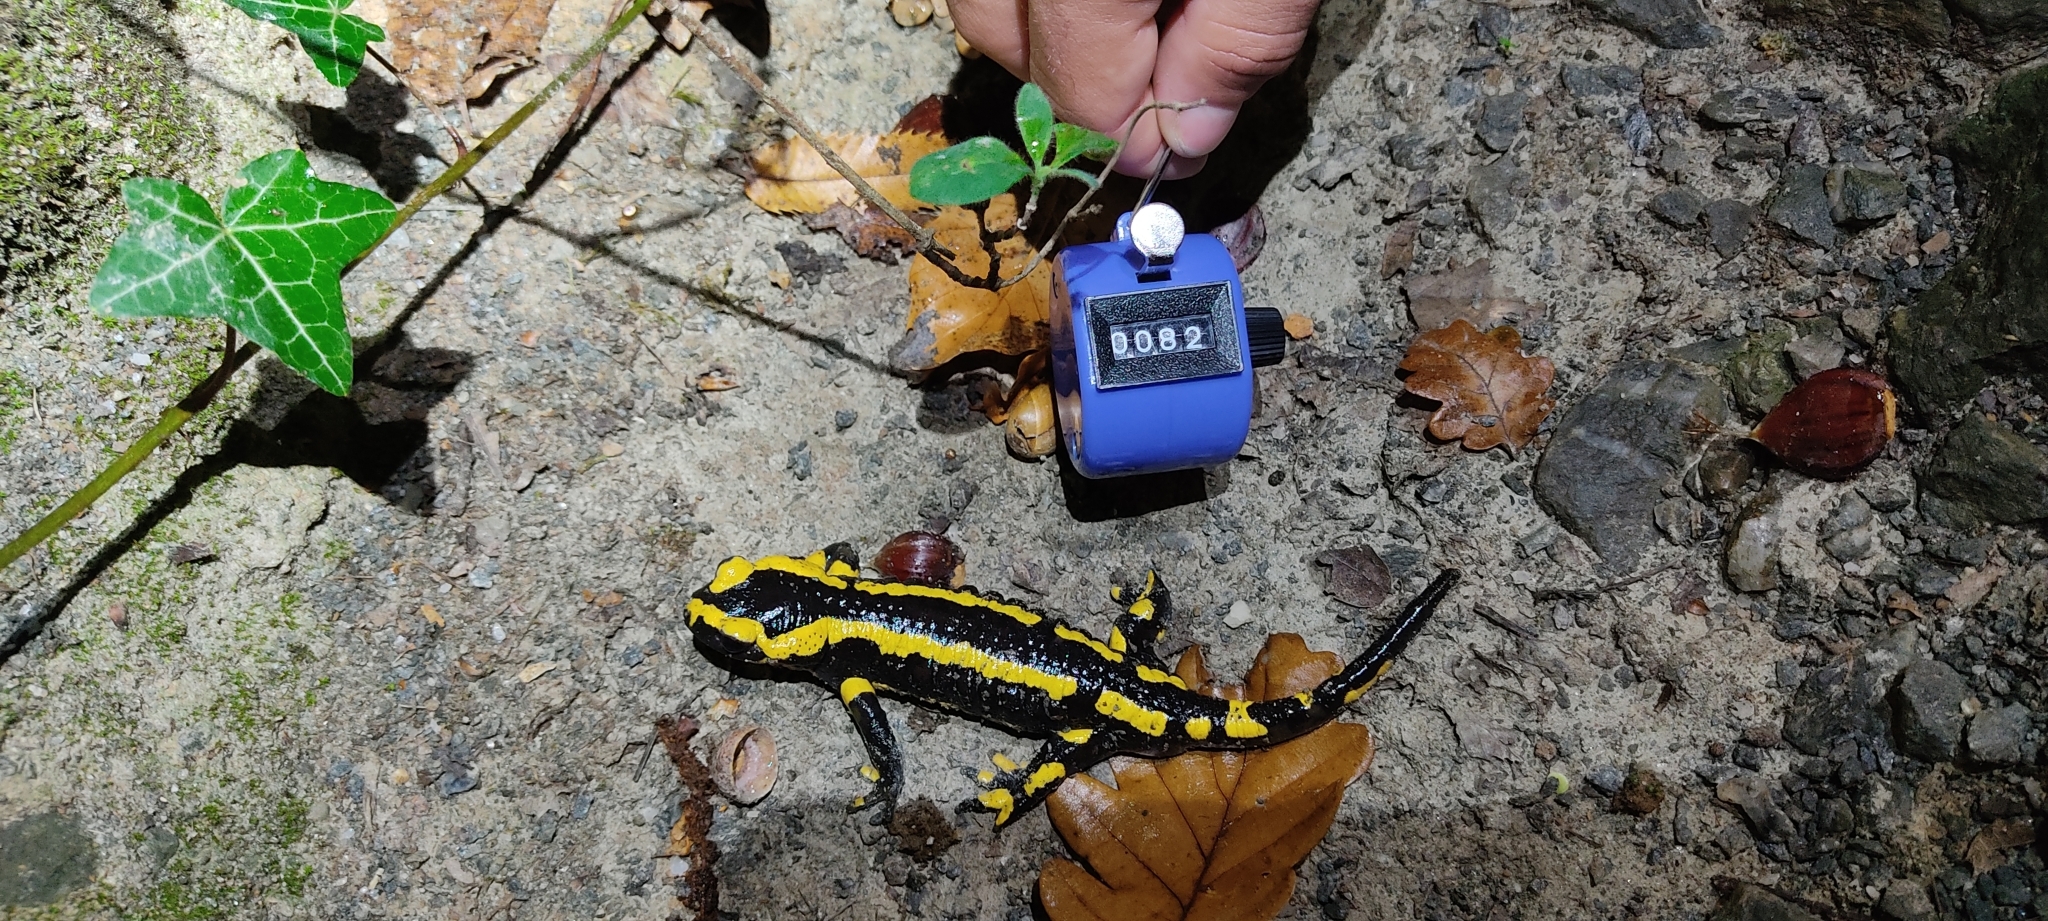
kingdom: Animalia
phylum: Chordata
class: Amphibia
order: Caudata
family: Salamandridae
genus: Salamandra
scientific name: Salamandra salamandra
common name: Fire salamander
